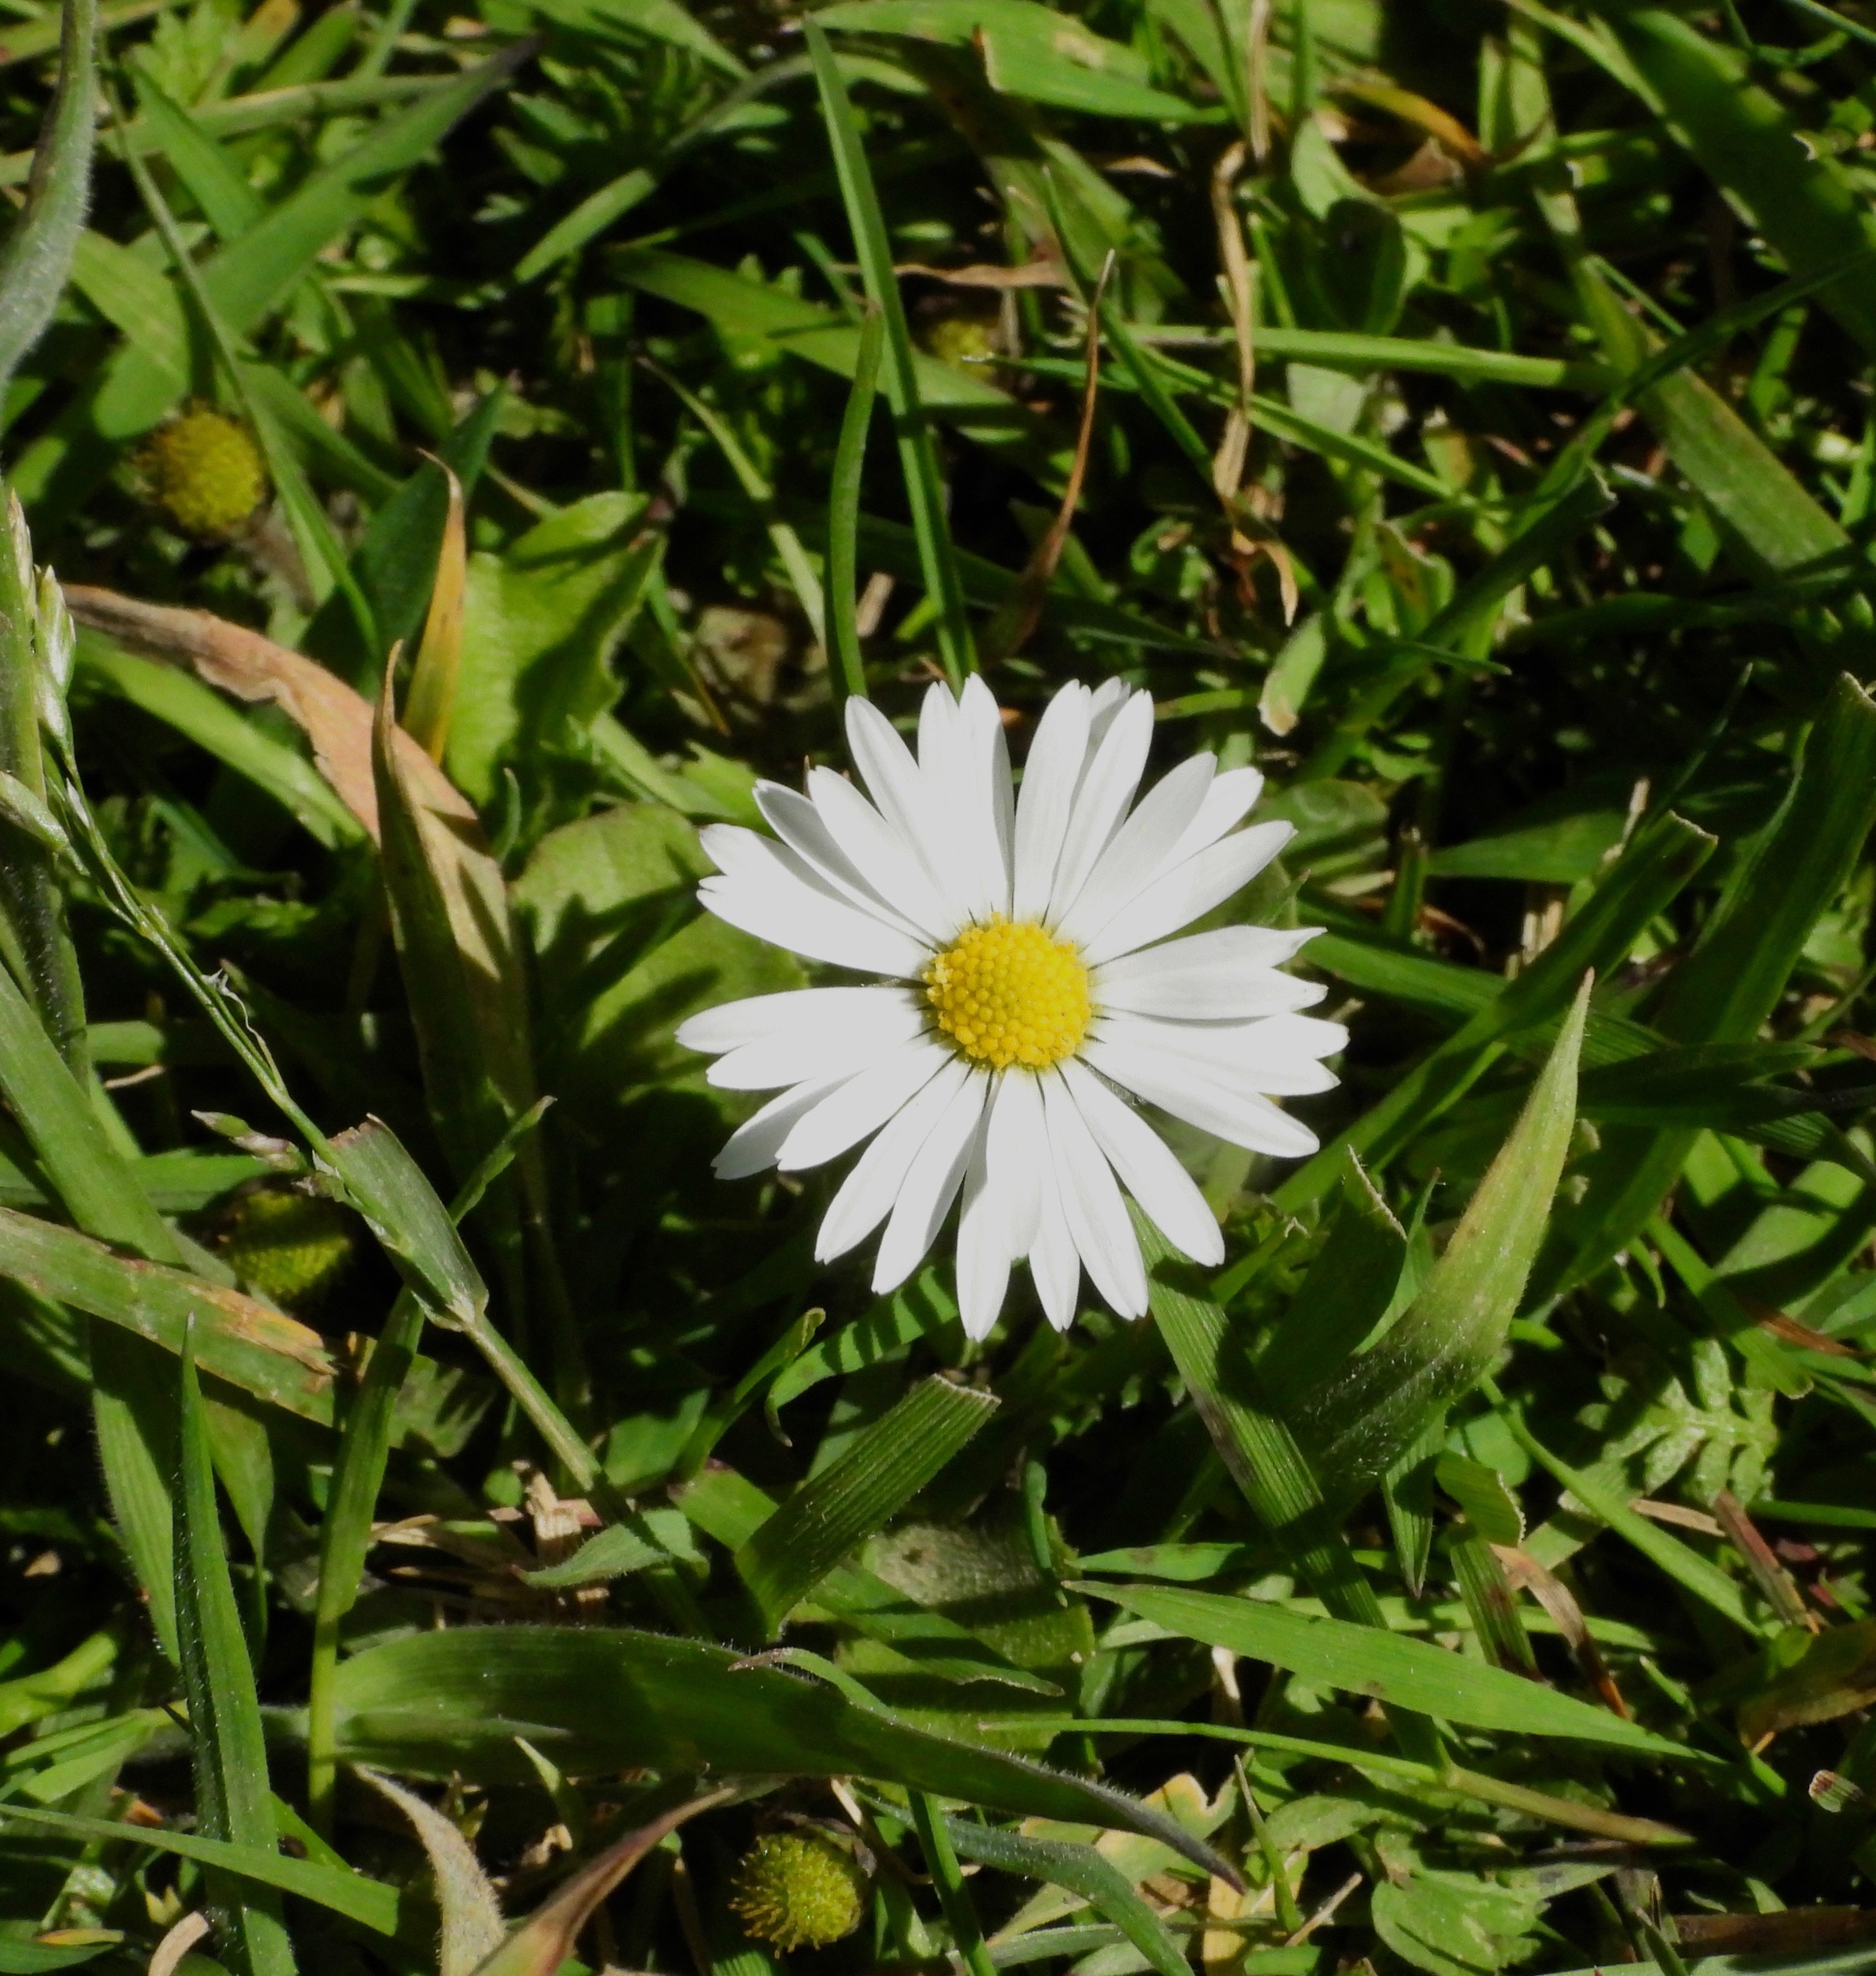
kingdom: Plantae
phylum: Tracheophyta
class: Magnoliopsida
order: Asterales
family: Asteraceae
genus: Bellis
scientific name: Bellis perennis
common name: Lawndaisy
